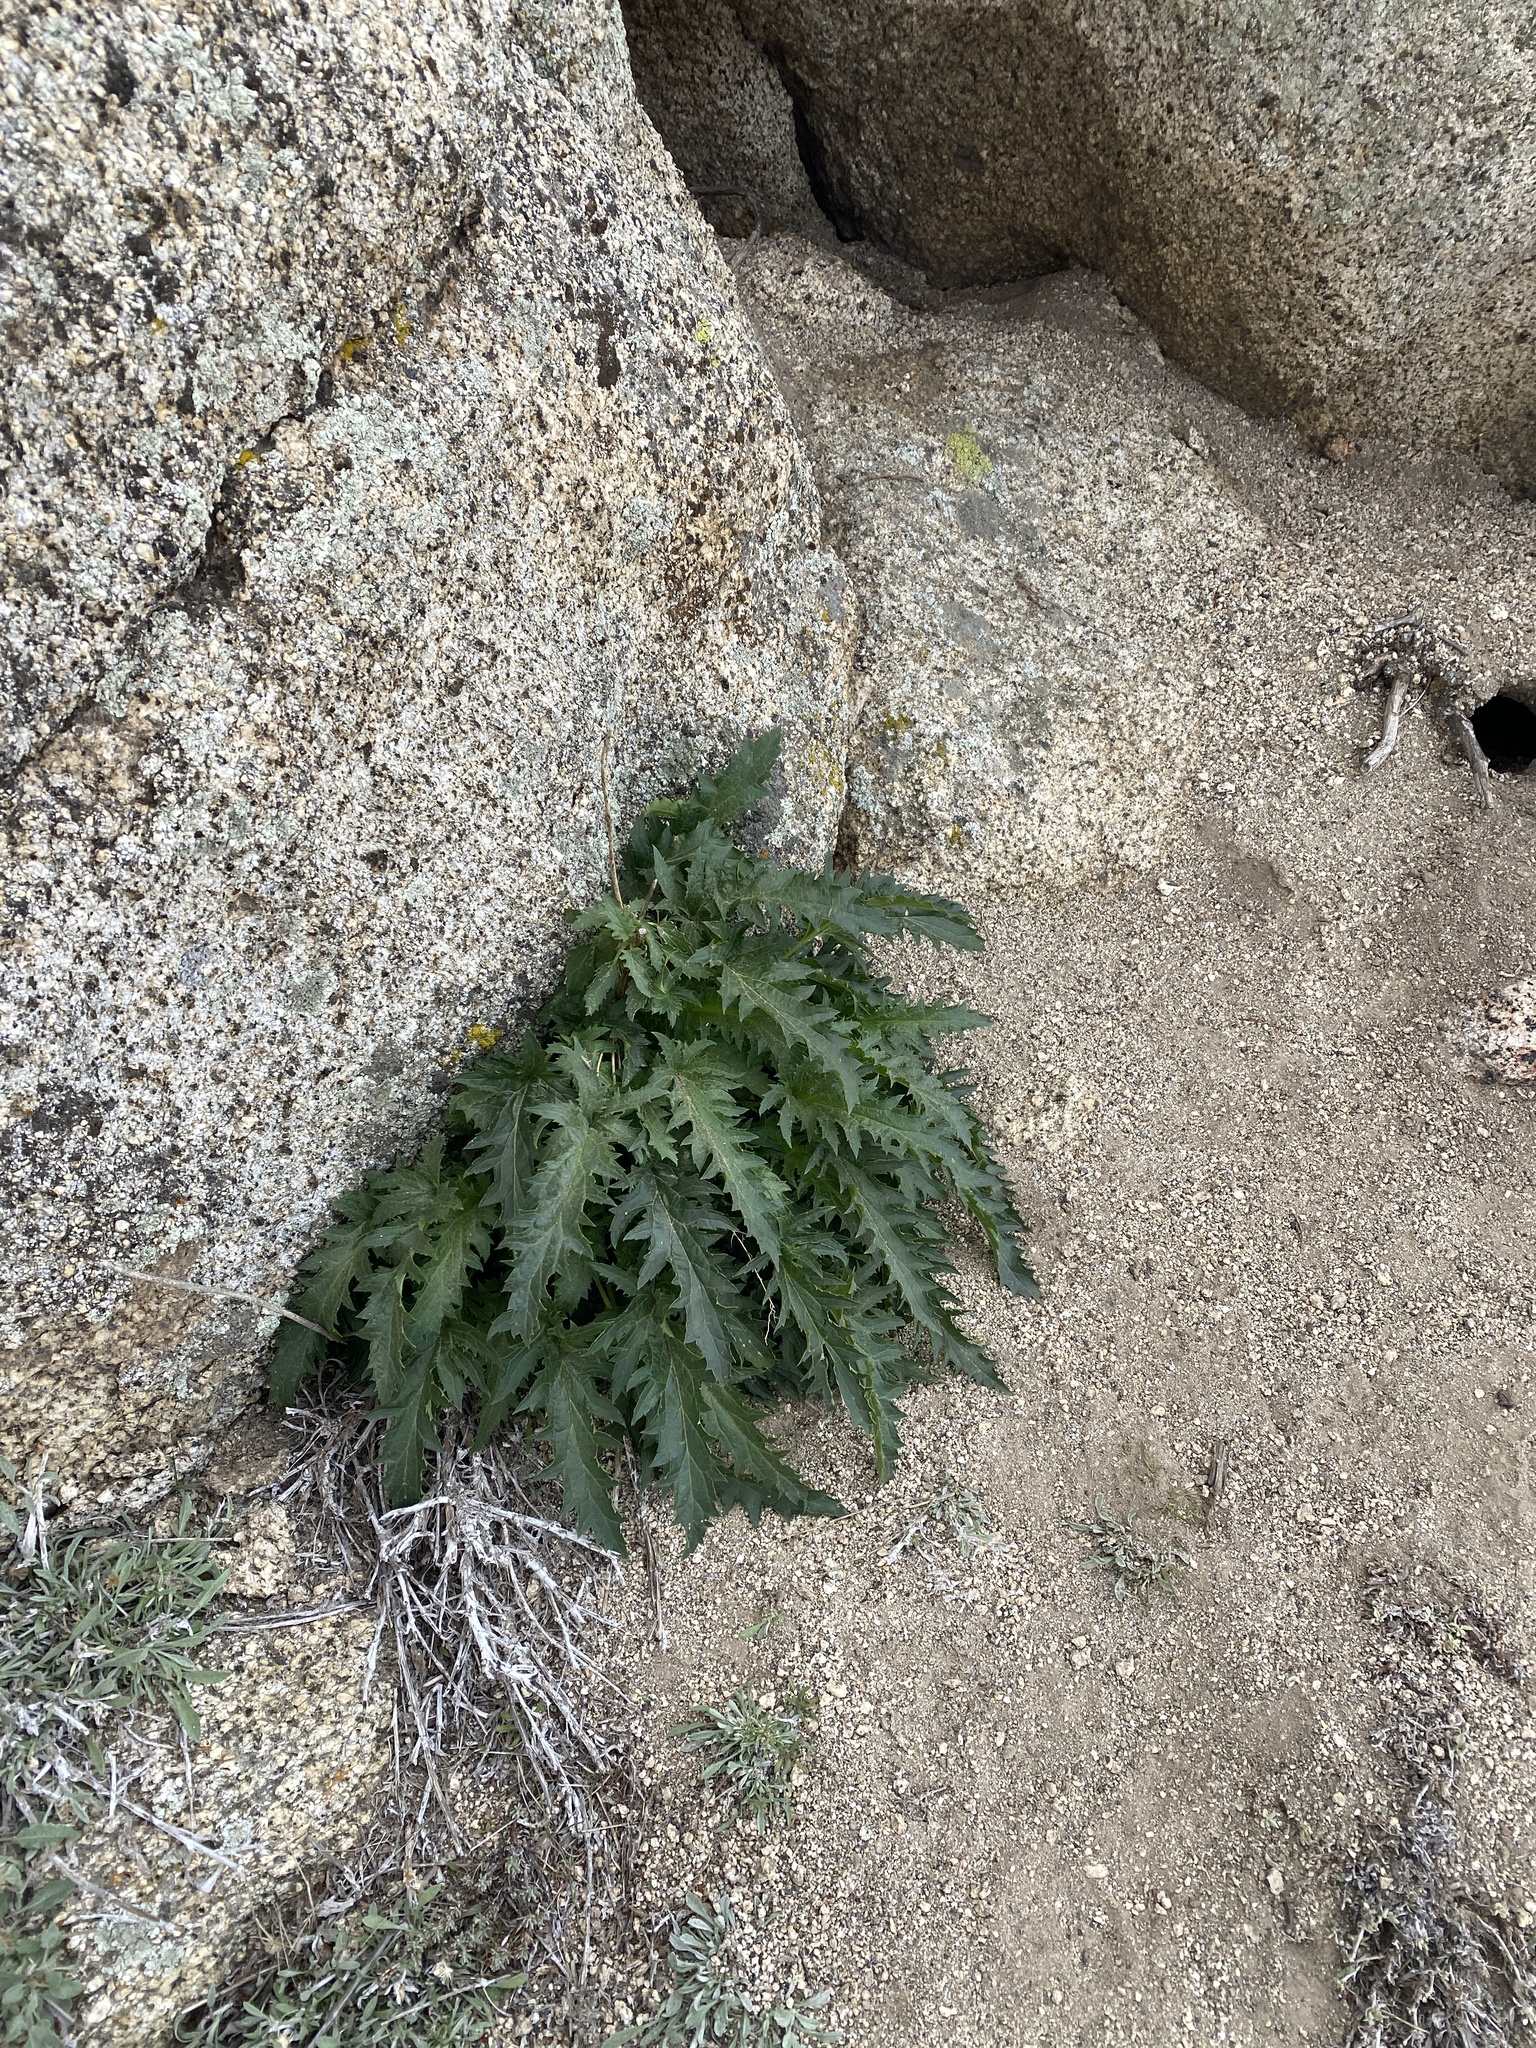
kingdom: Plantae
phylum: Tracheophyta
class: Magnoliopsida
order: Lamiales
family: Scrophulariaceae
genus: Scrophularia
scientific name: Scrophularia californica
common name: California figwort
